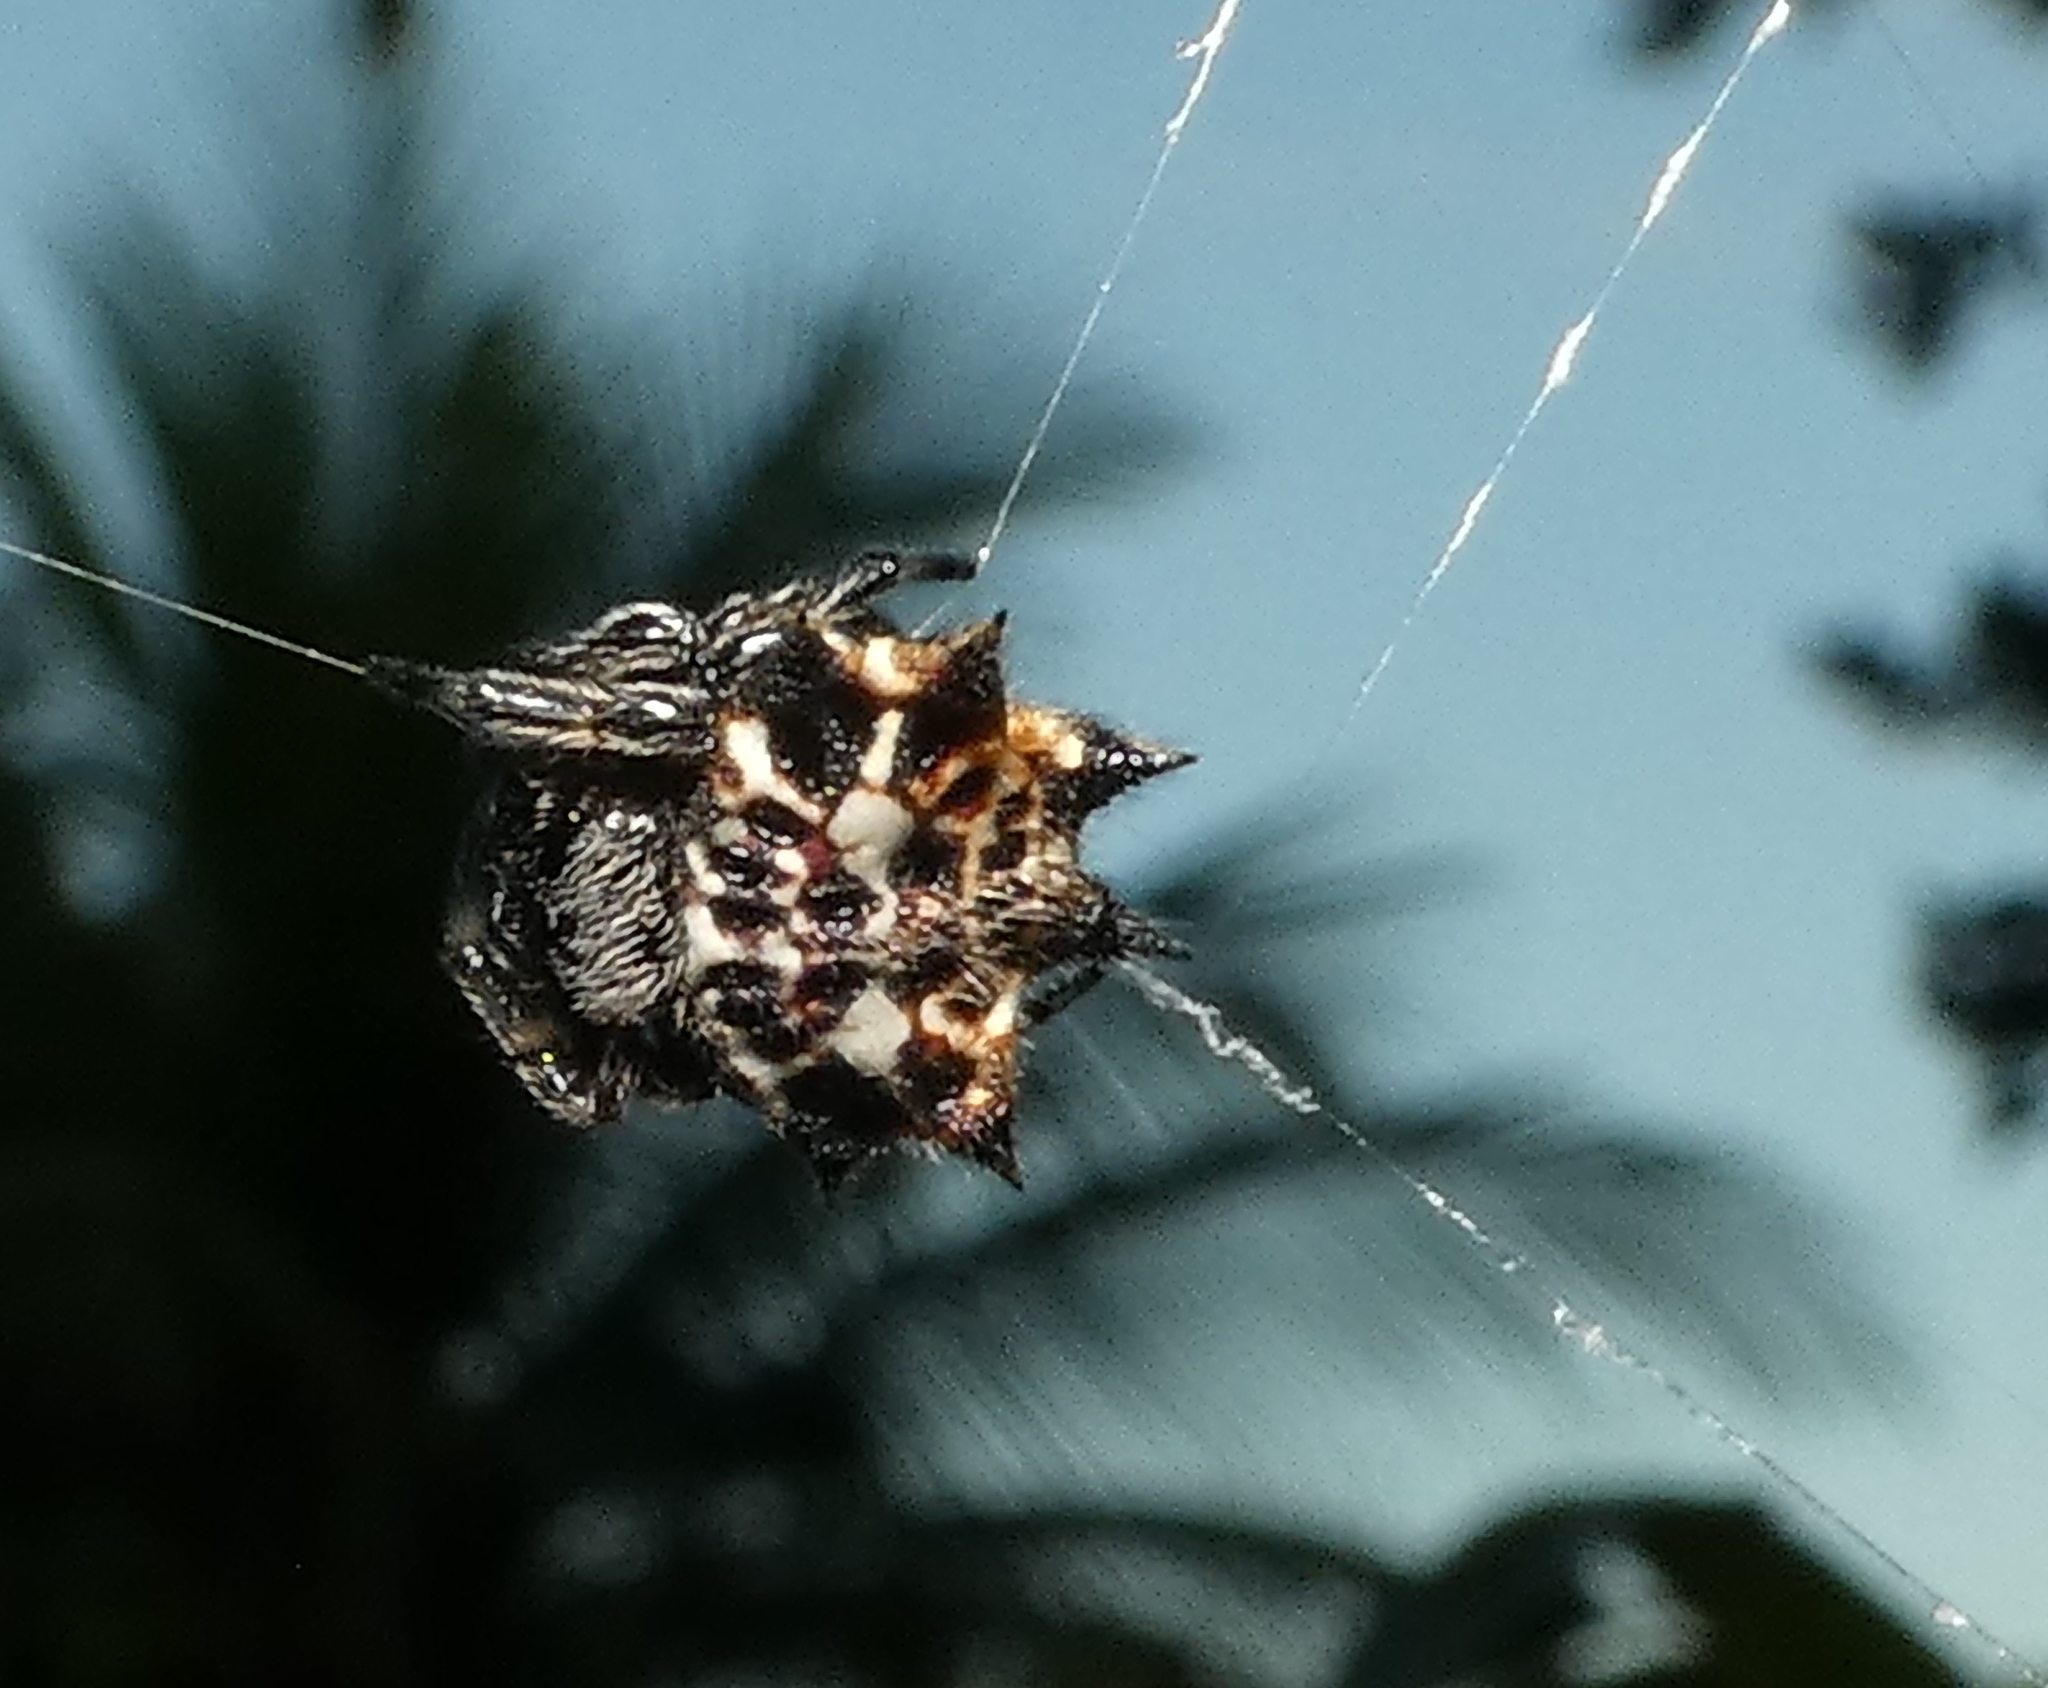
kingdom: Animalia
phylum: Arthropoda
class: Arachnida
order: Araneae
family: Araneidae
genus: Gasteracantha
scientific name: Gasteracantha cancriformis
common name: Orb weavers
